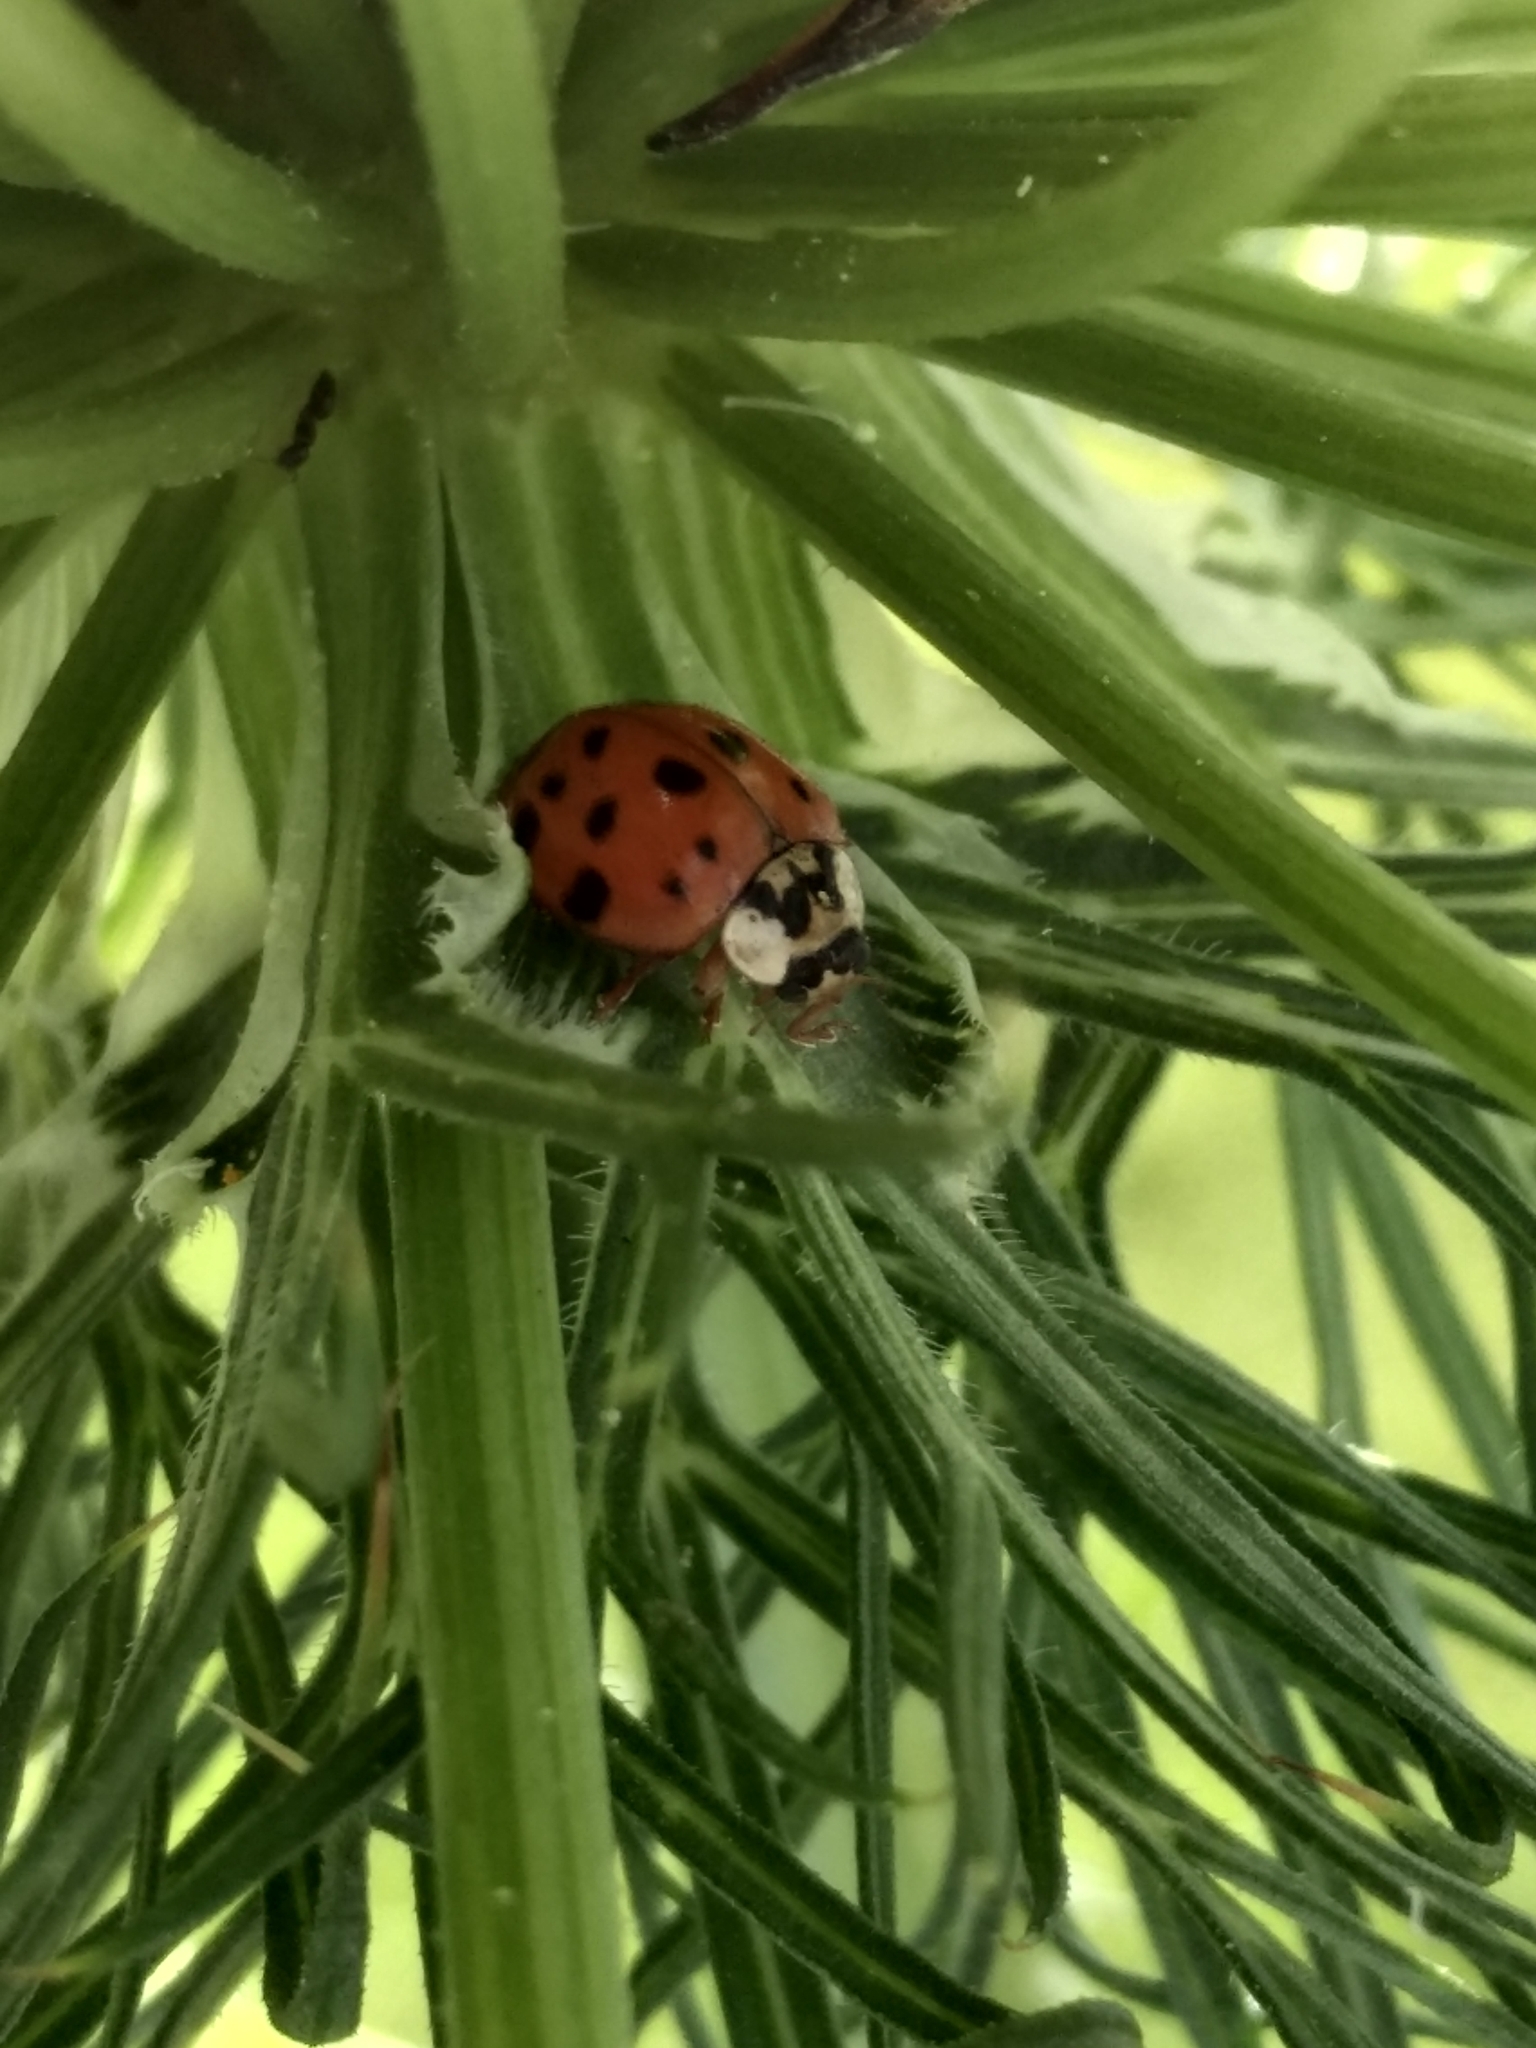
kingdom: Animalia
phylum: Arthropoda
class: Insecta
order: Coleoptera
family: Coccinellidae
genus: Harmonia
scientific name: Harmonia axyridis
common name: Harlequin ladybird
